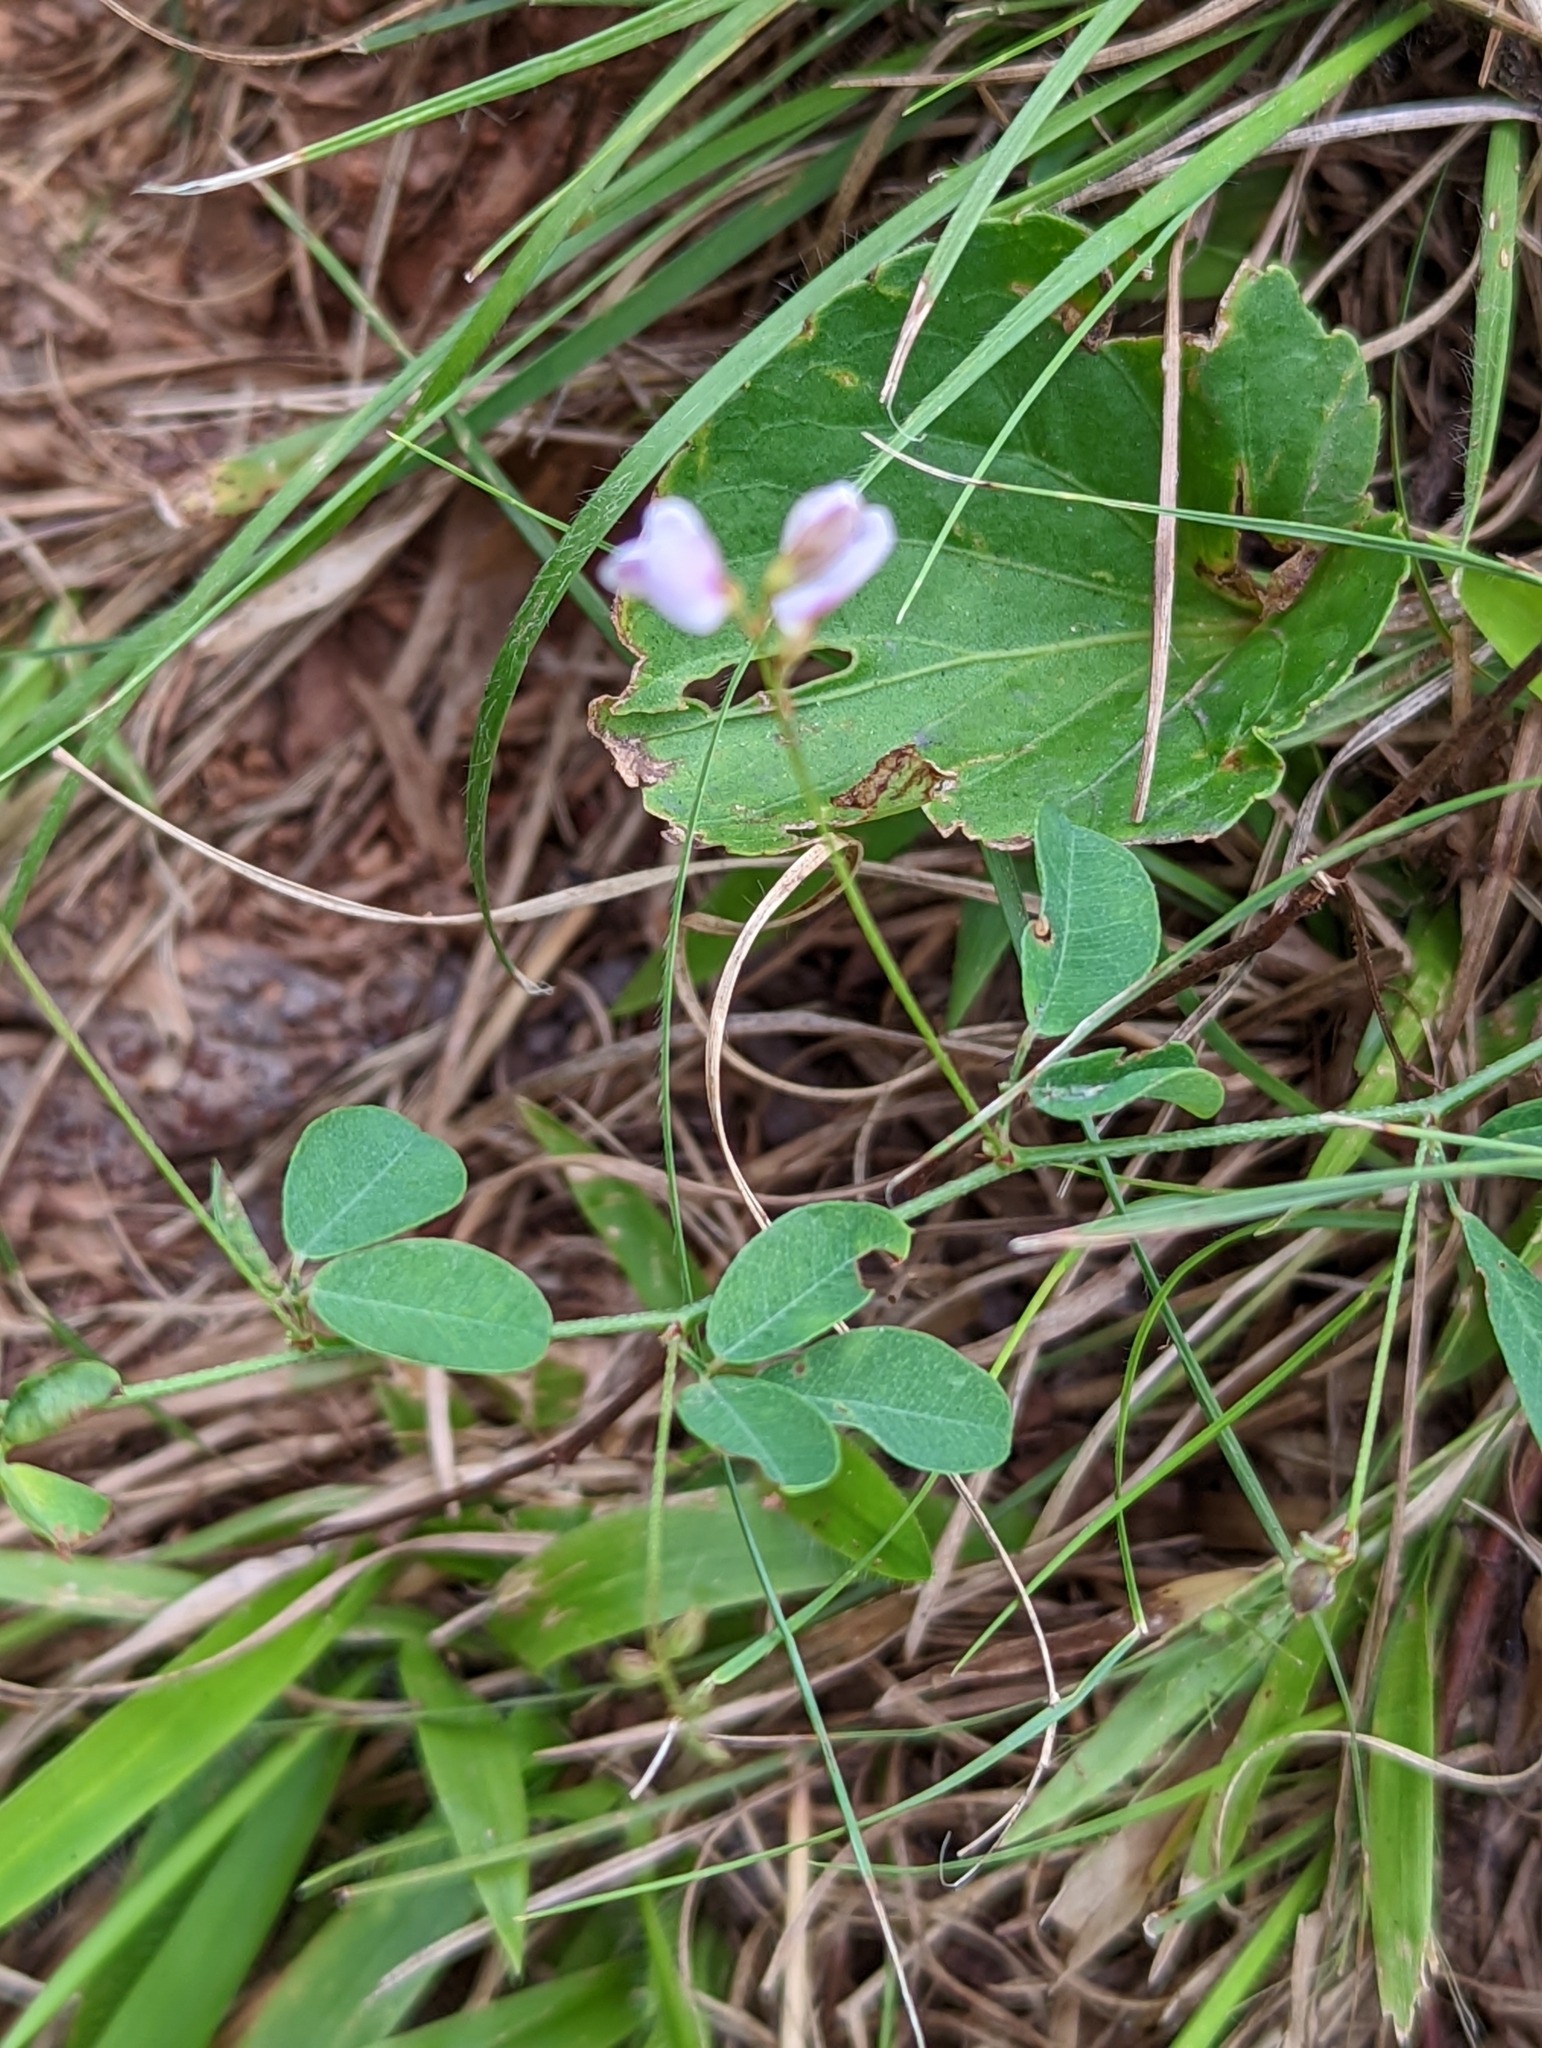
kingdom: Plantae
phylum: Tracheophyta
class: Magnoliopsida
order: Fabales
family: Fabaceae
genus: Lespedeza
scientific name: Lespedeza repens
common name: Creeping bush-clover
